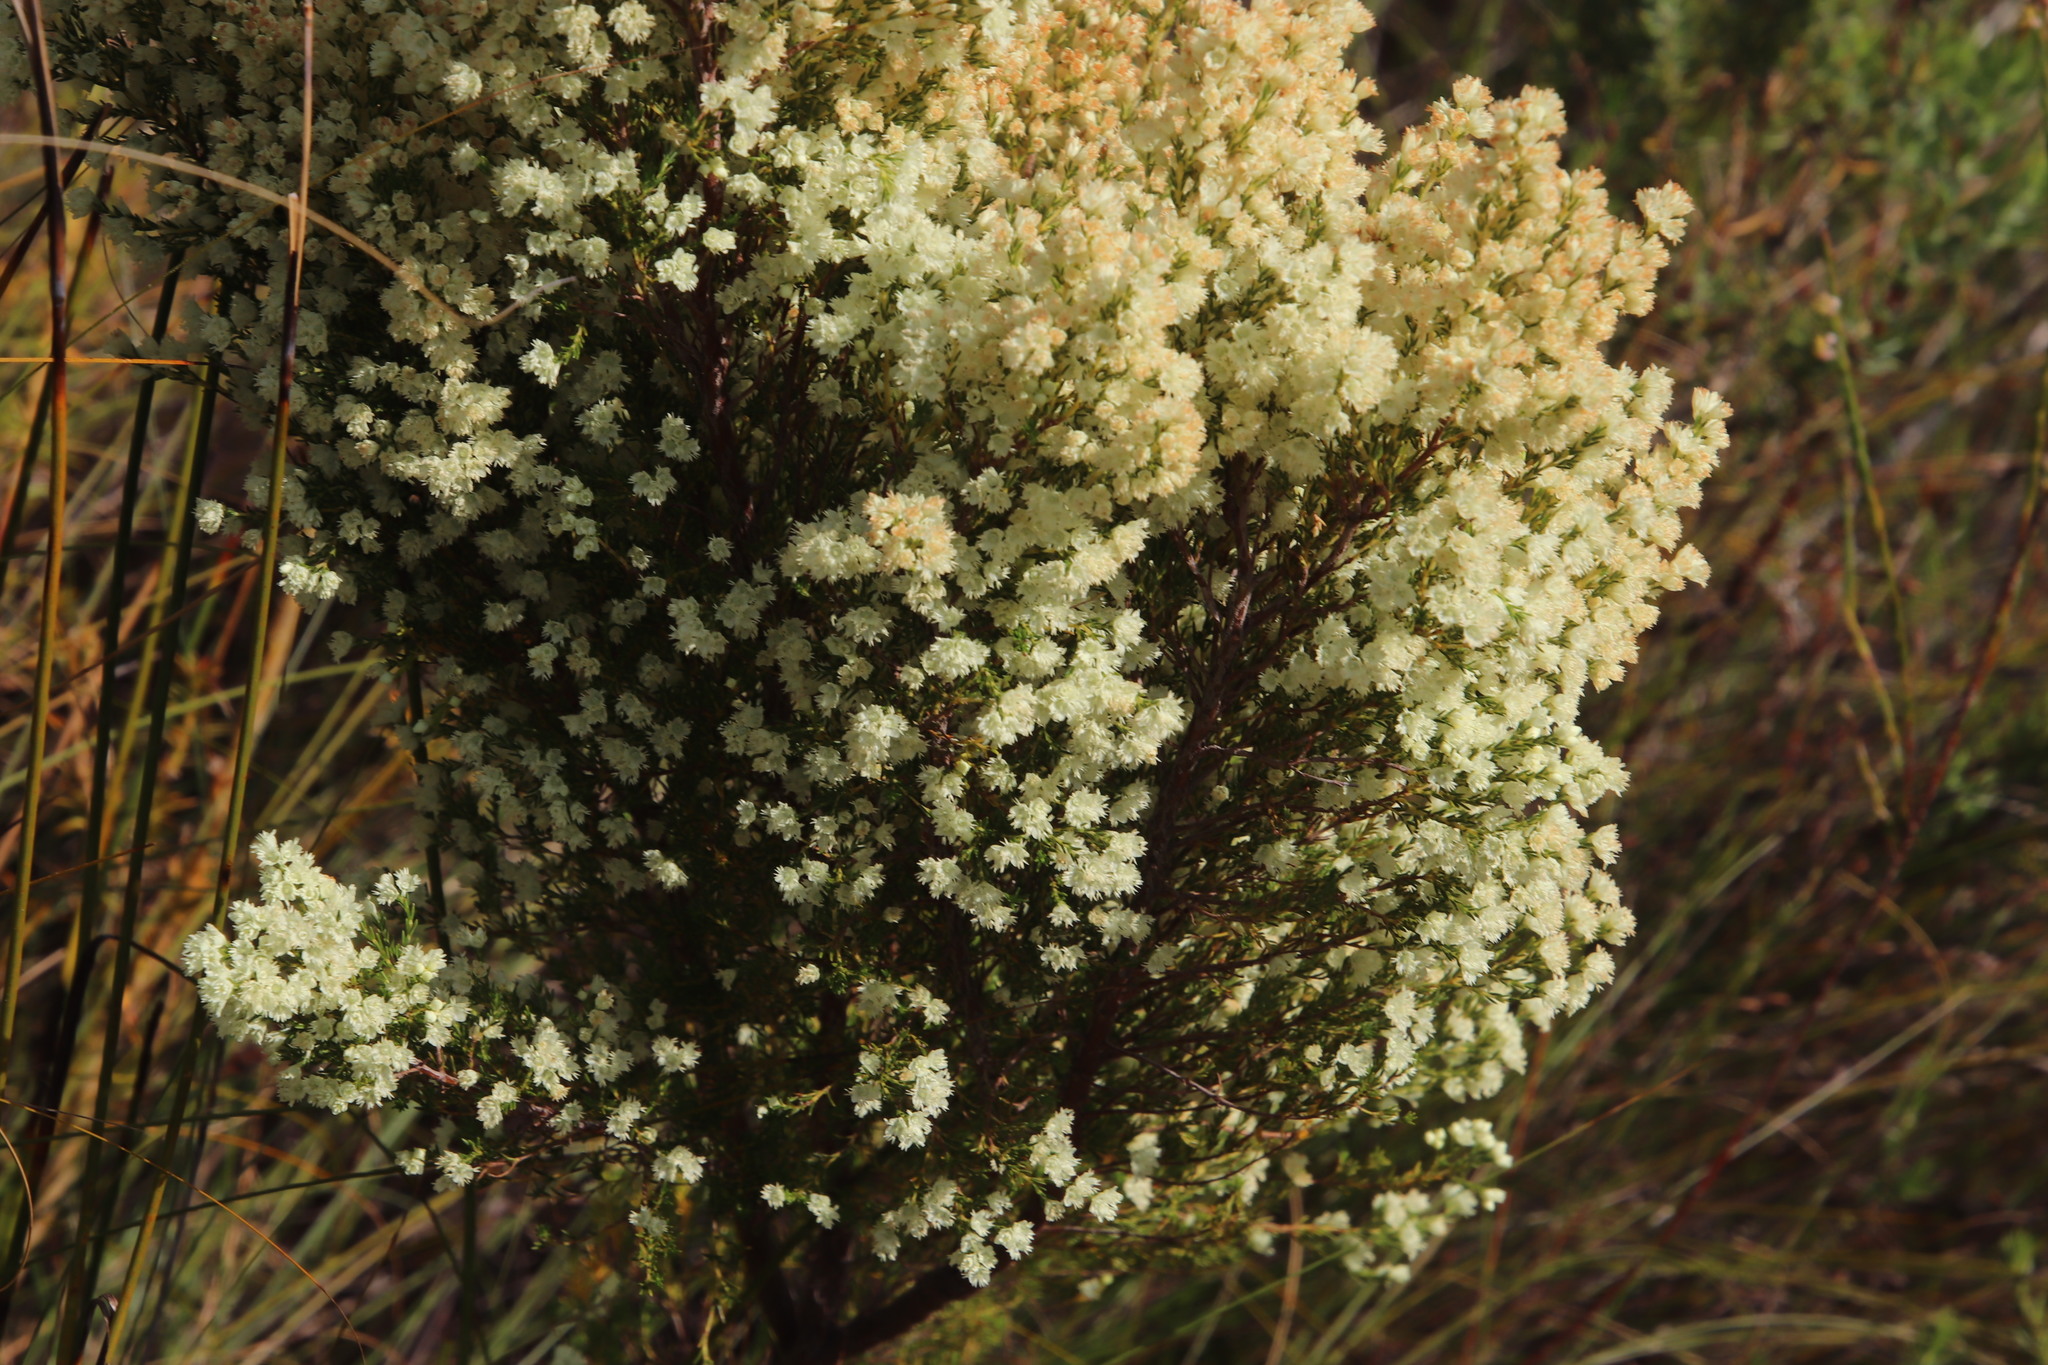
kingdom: Plantae
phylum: Tracheophyta
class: Magnoliopsida
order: Ericales
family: Ericaceae
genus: Erica
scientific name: Erica leucanthera
